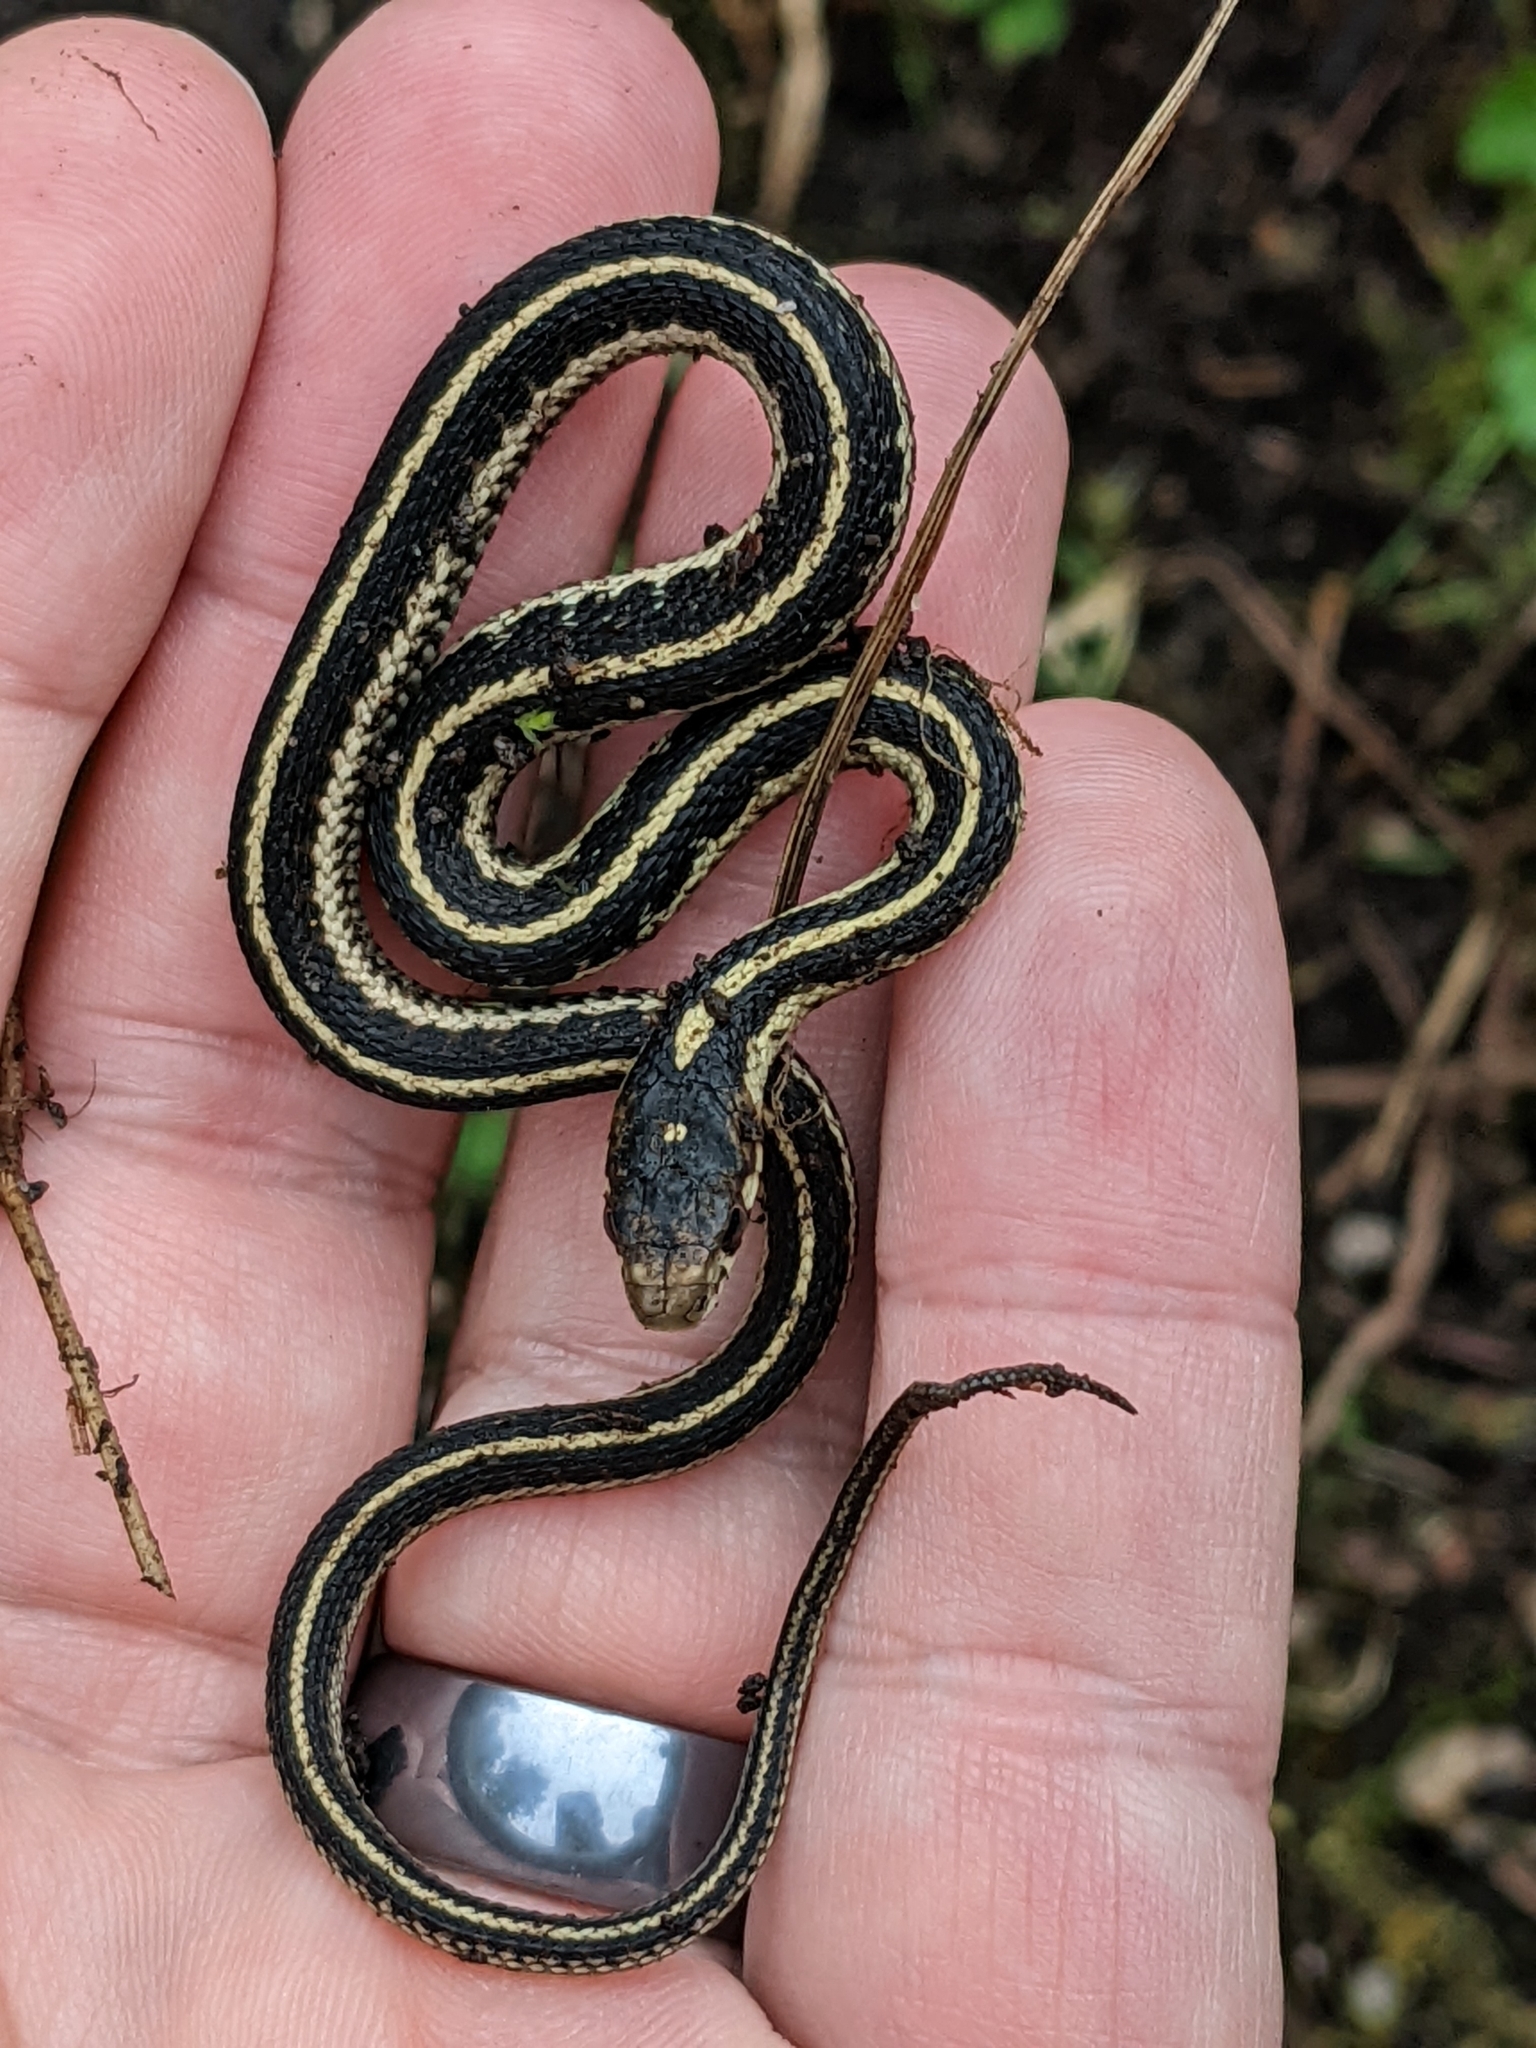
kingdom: Animalia
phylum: Chordata
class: Squamata
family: Colubridae
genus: Thamnophis
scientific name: Thamnophis sirtalis
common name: Common garter snake
